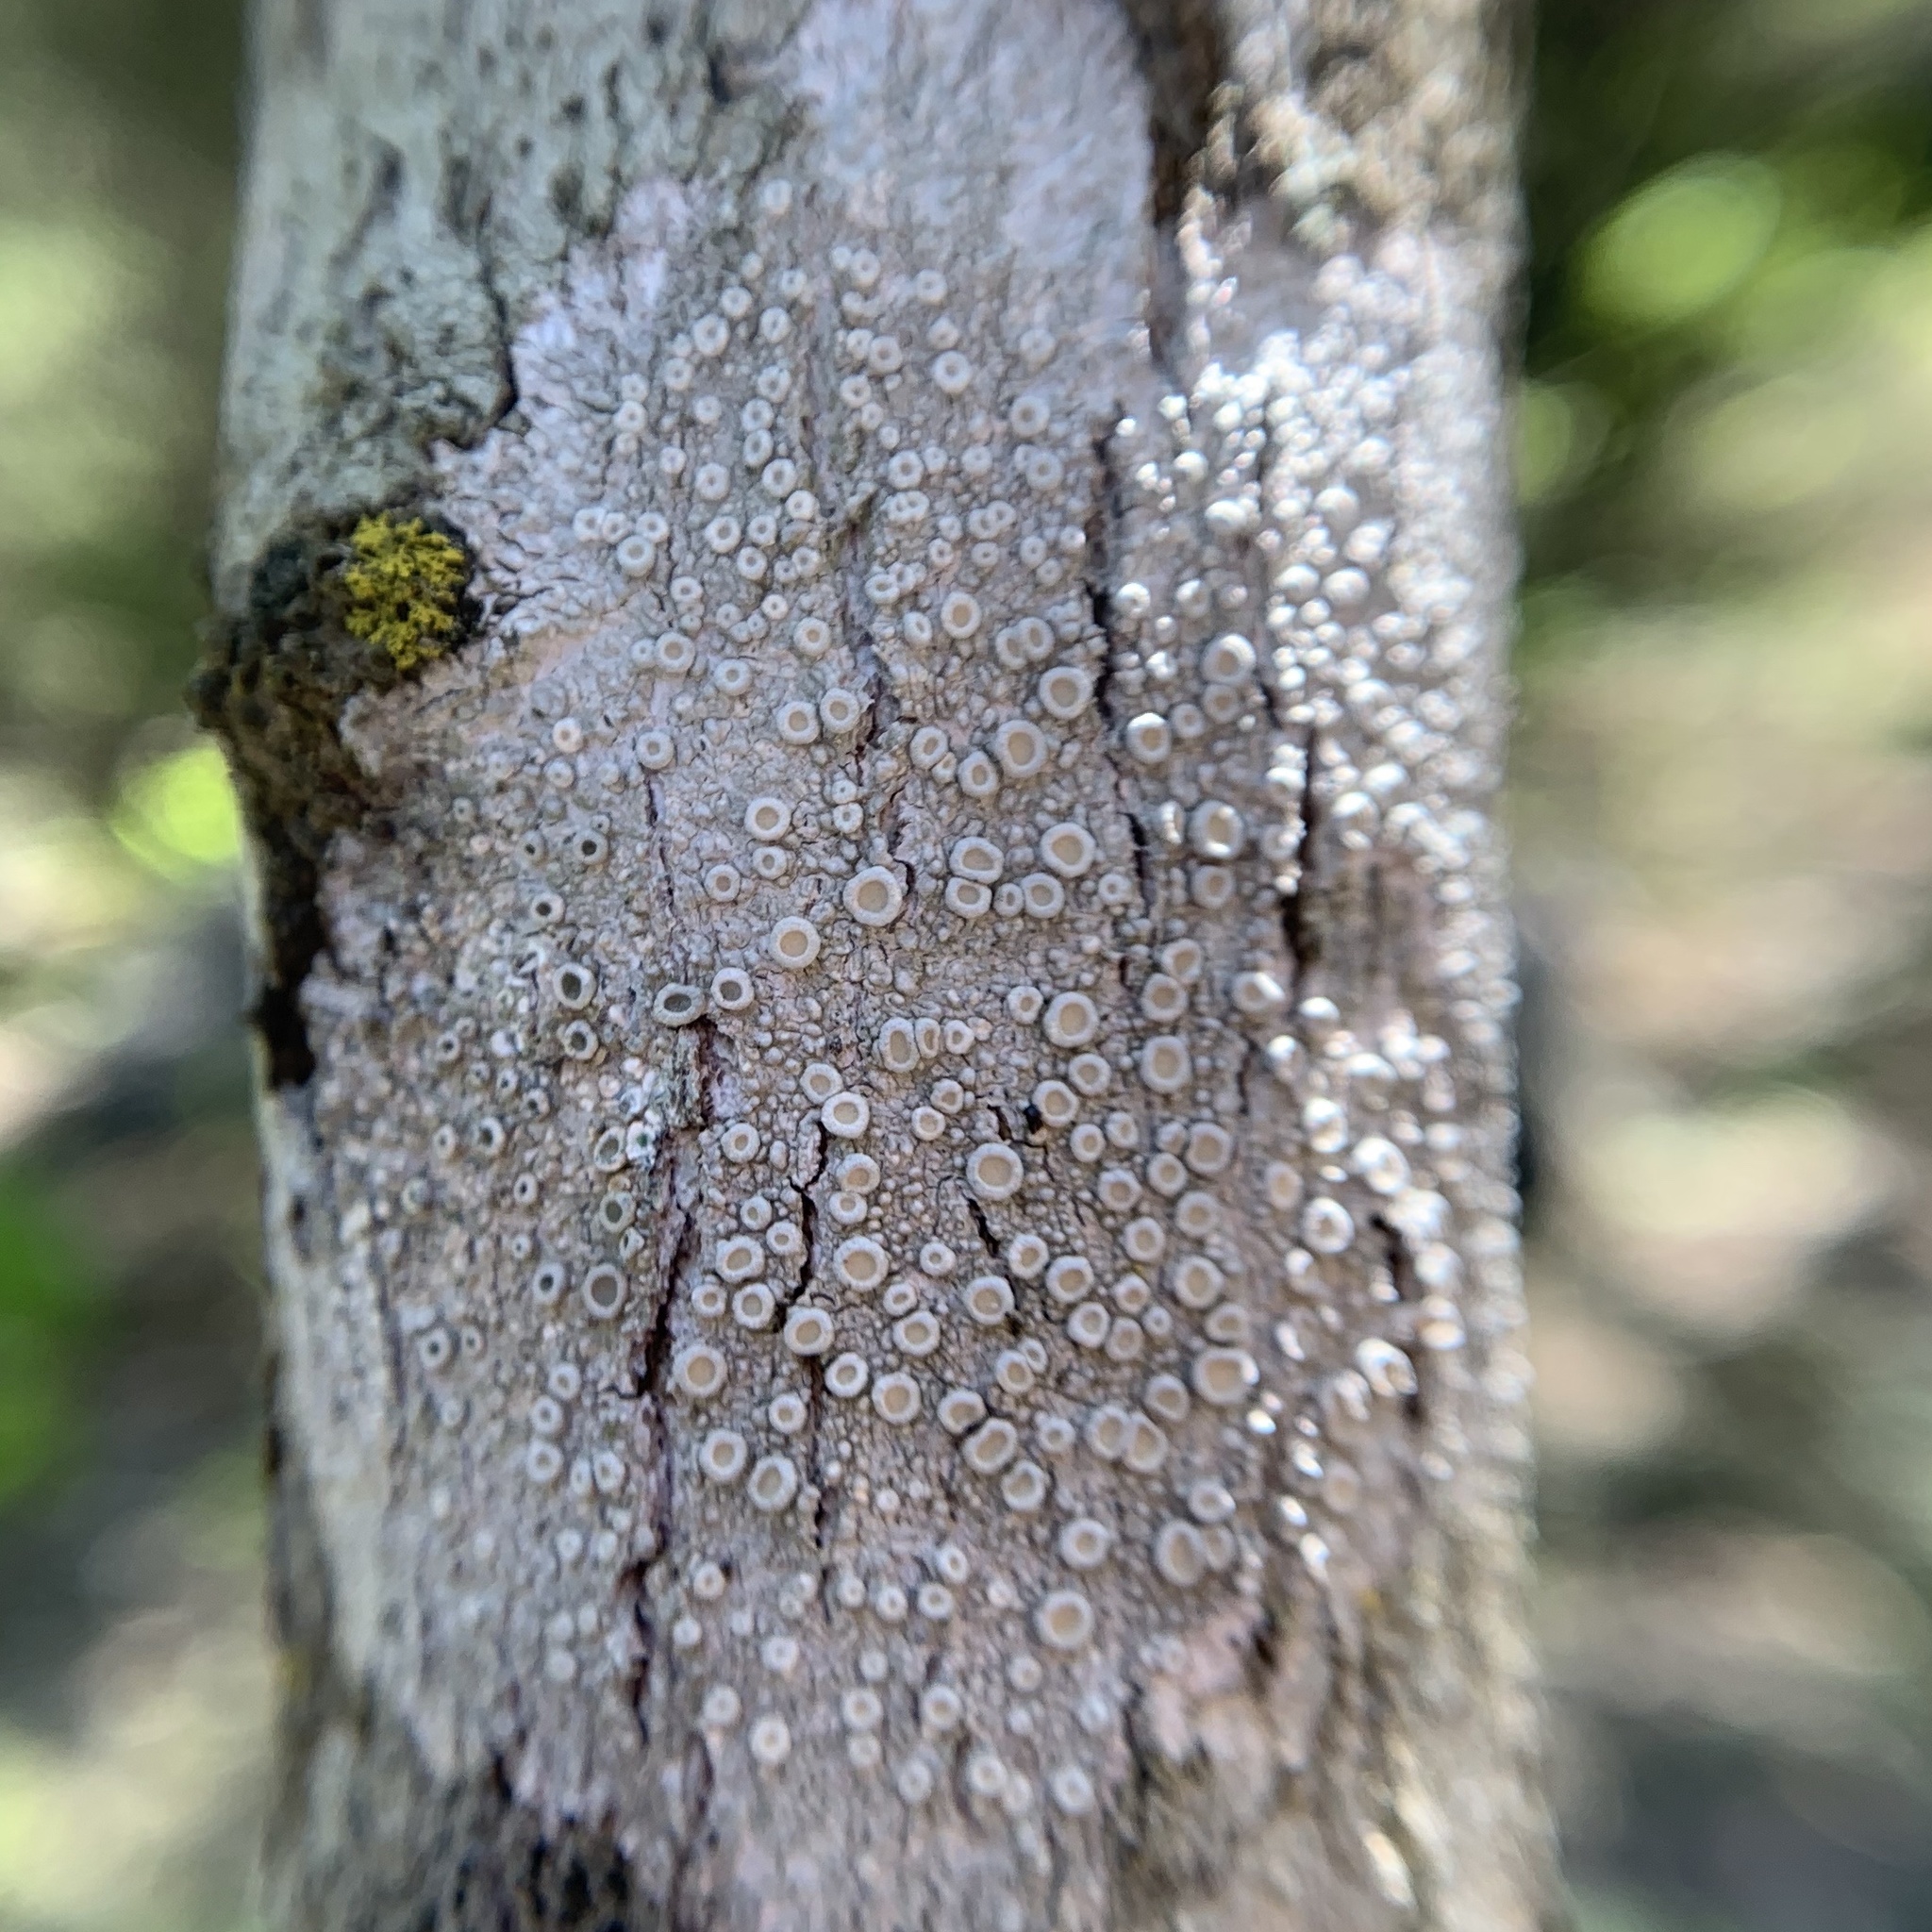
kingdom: Fungi
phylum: Ascomycota
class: Lecanoromycetes
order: Pertusariales
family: Ochrolechiaceae
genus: Ochrolechia
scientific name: Ochrolechia africana
